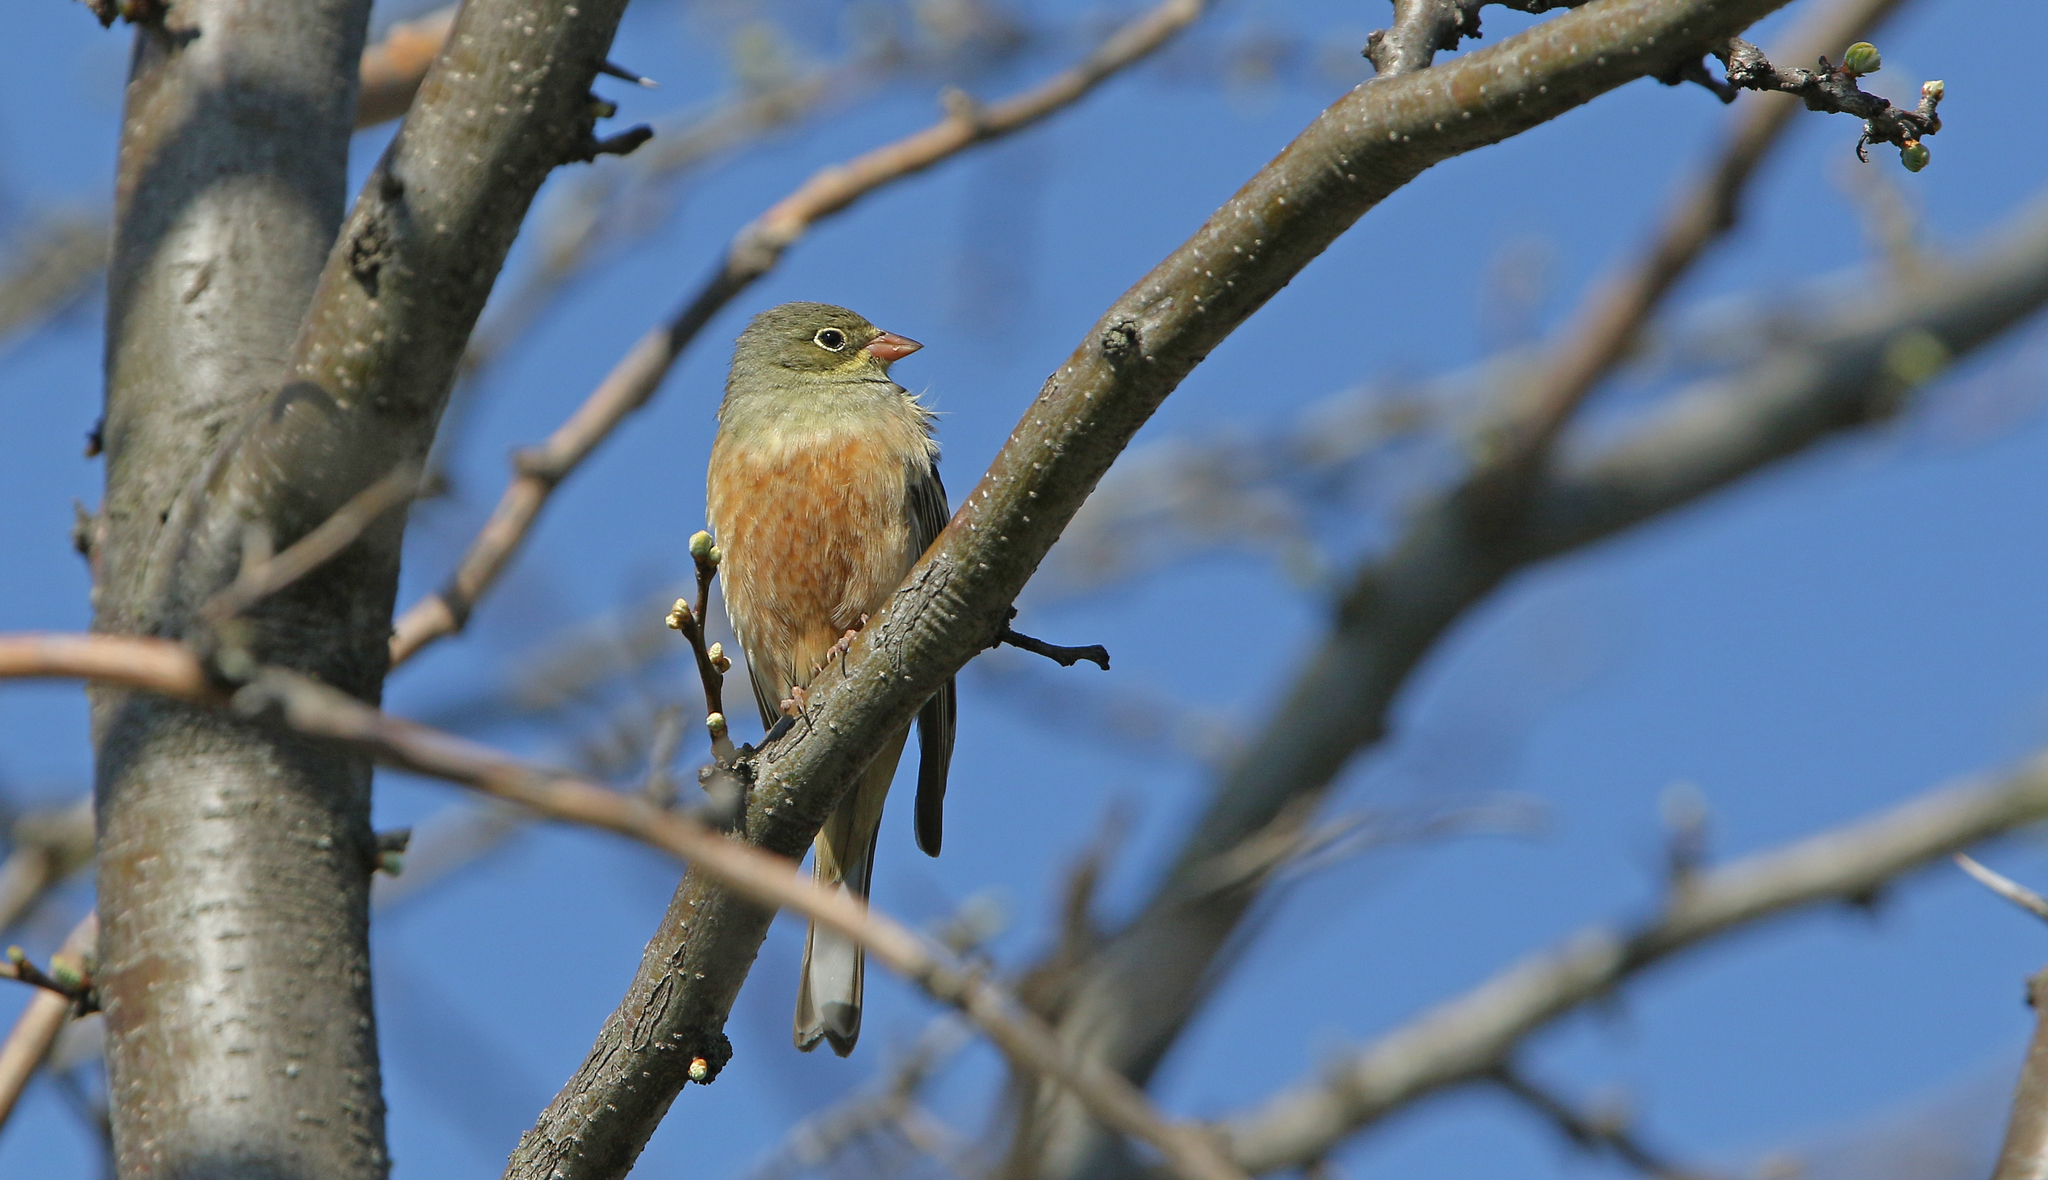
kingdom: Animalia
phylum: Chordata
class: Aves
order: Passeriformes
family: Emberizidae
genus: Emberiza
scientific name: Emberiza hortulana
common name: Ortolan bunting
